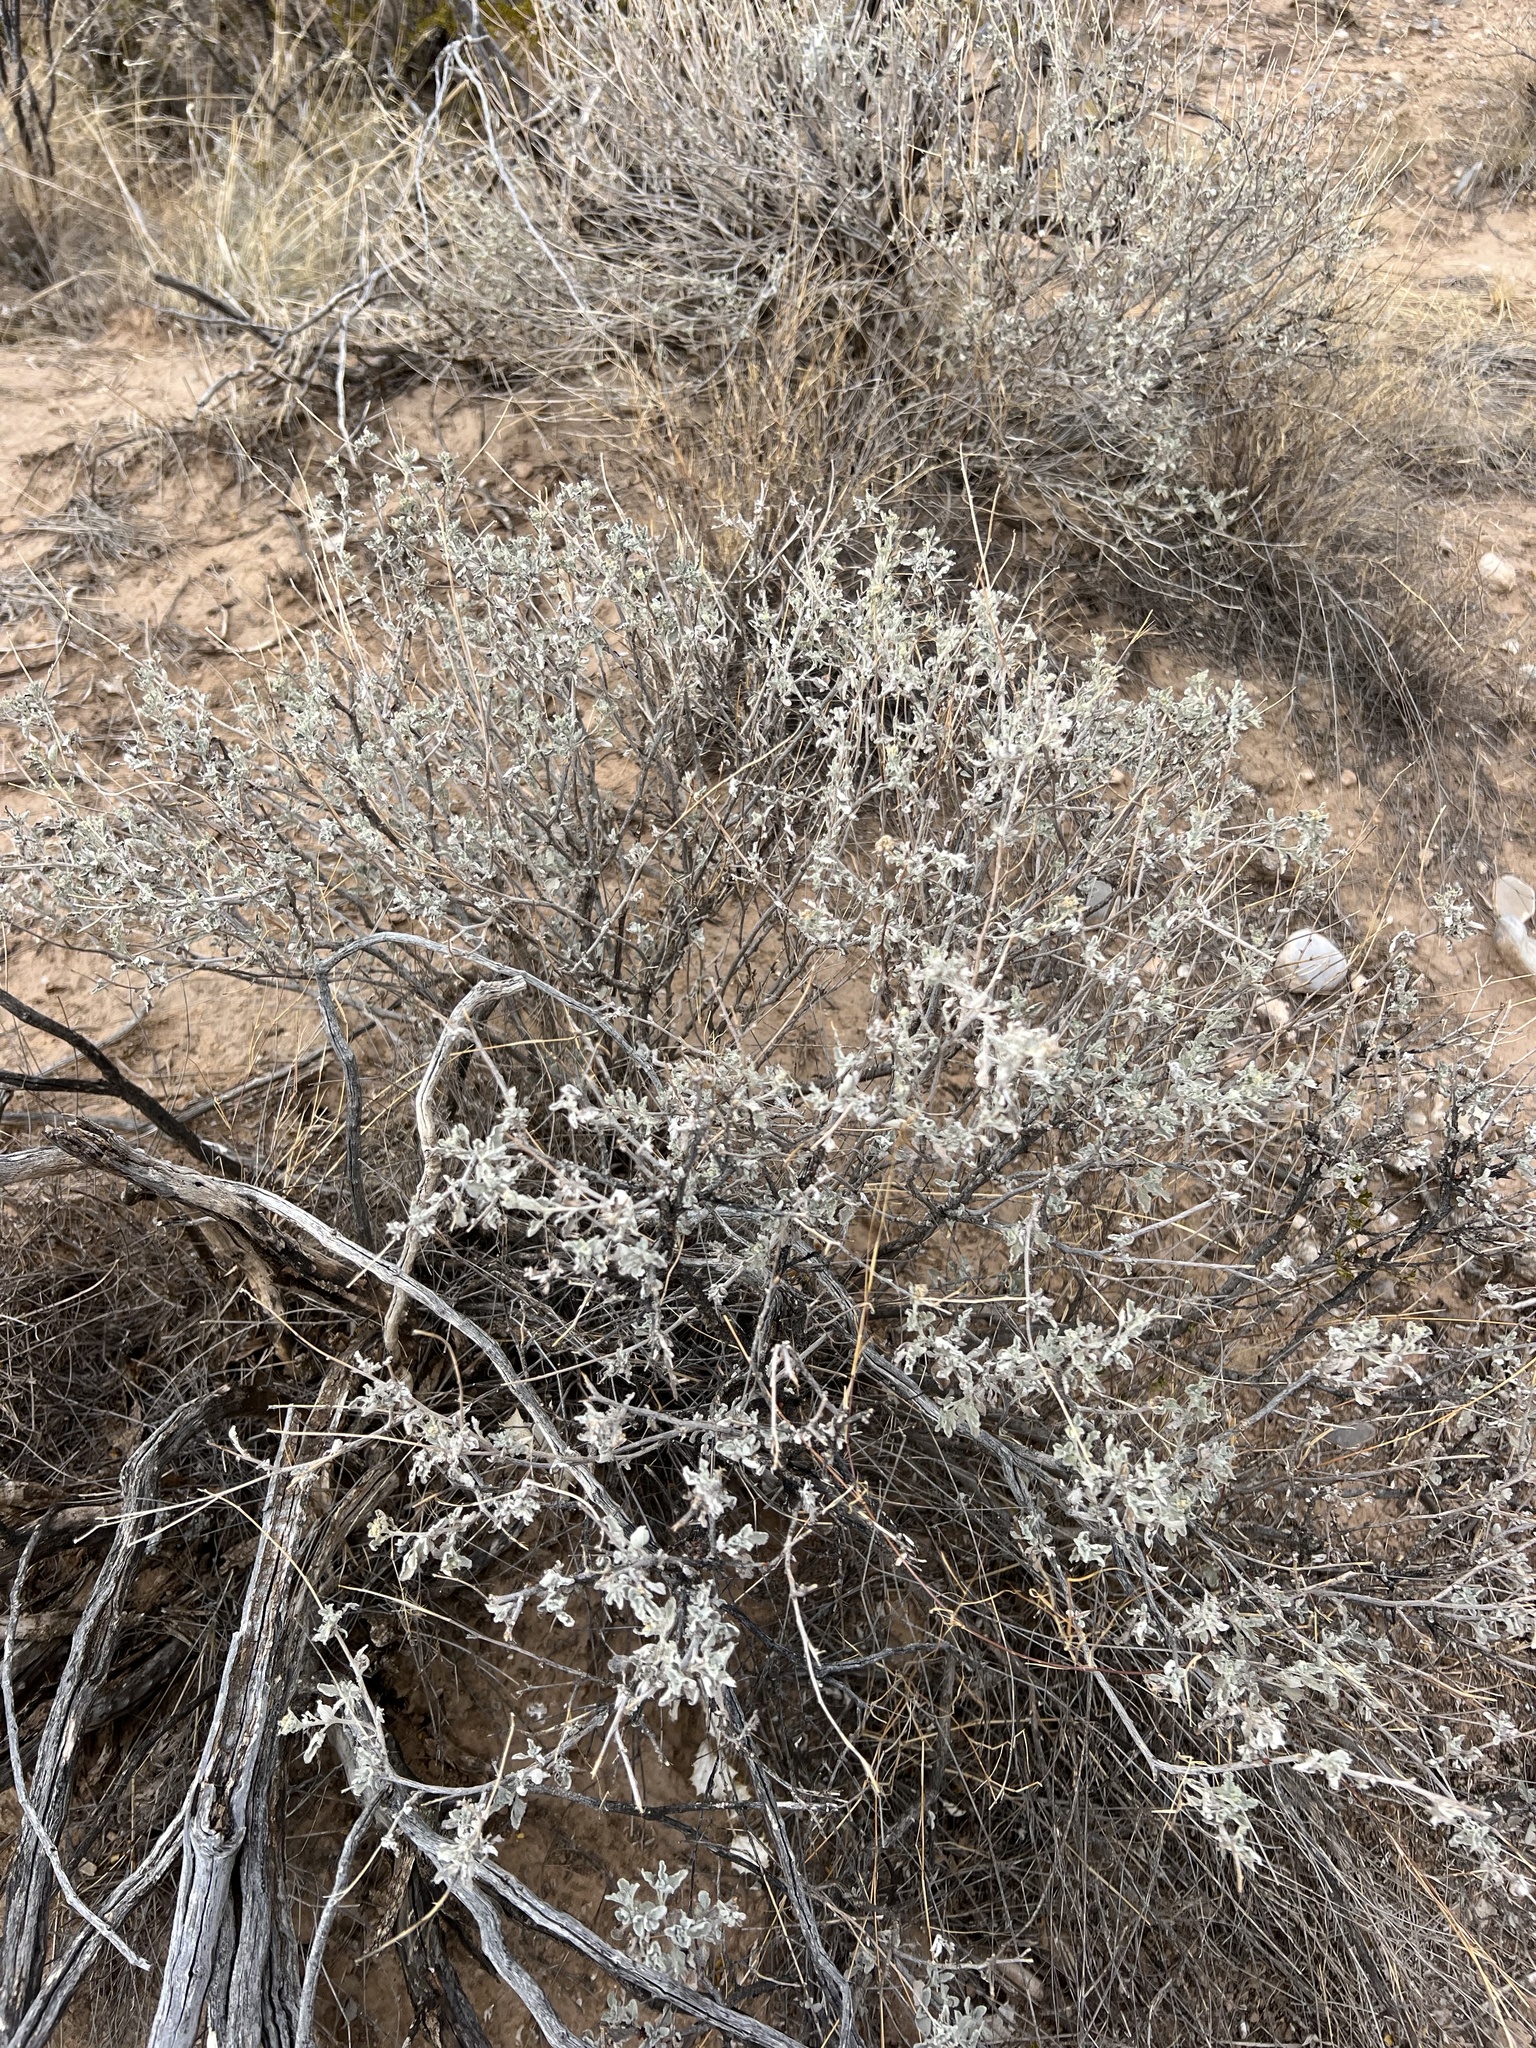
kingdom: Plantae
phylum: Tracheophyta
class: Magnoliopsida
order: Asterales
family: Asteraceae
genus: Parthenium
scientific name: Parthenium incanum
